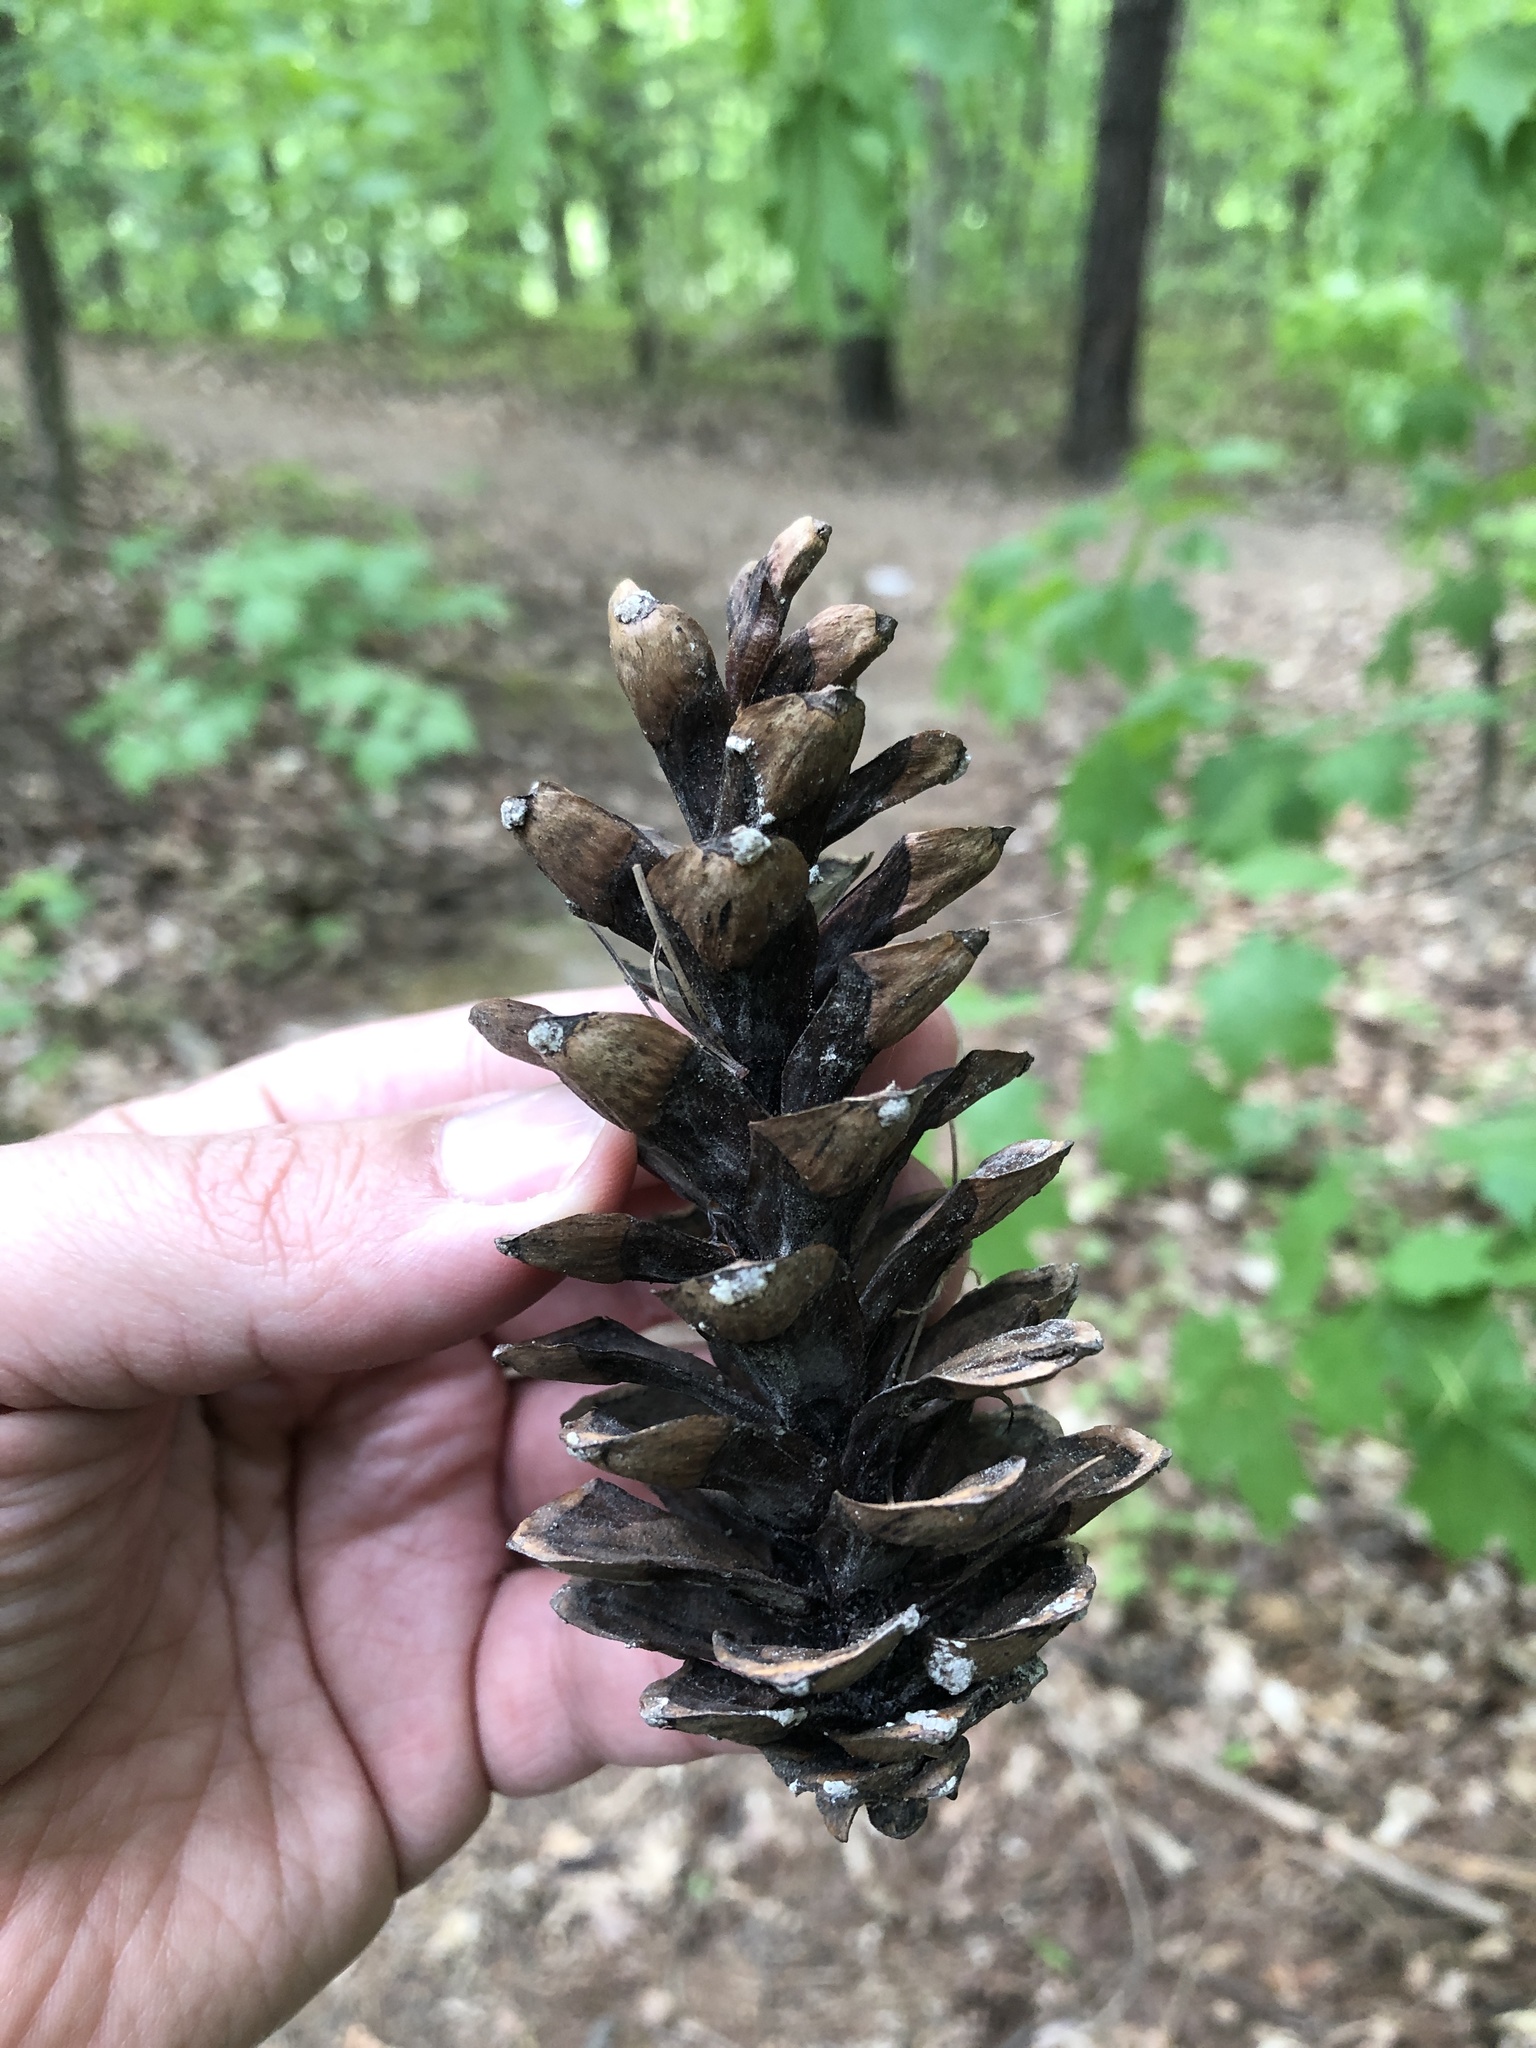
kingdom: Plantae
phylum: Tracheophyta
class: Pinopsida
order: Pinales
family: Pinaceae
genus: Pinus
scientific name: Pinus strobus
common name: Weymouth pine
